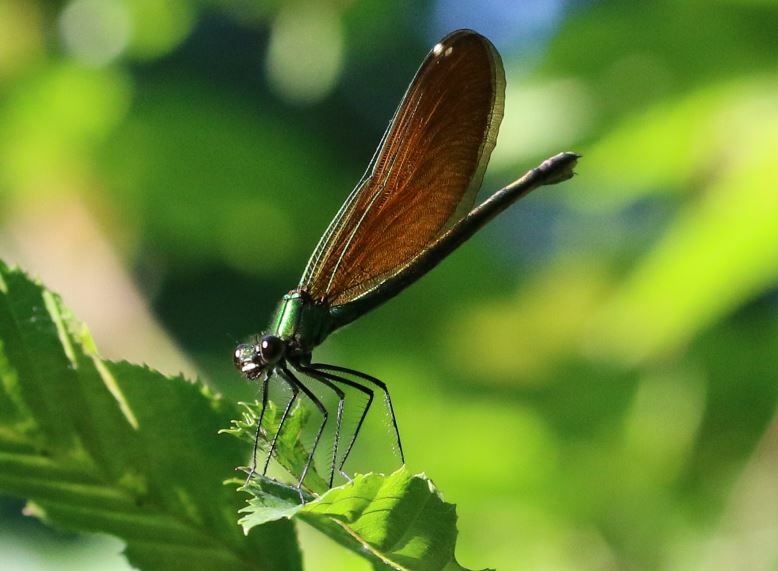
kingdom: Animalia
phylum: Arthropoda
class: Insecta
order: Odonata
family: Calopterygidae
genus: Calopteryx
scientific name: Calopteryx virgo
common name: Beautiful demoiselle
